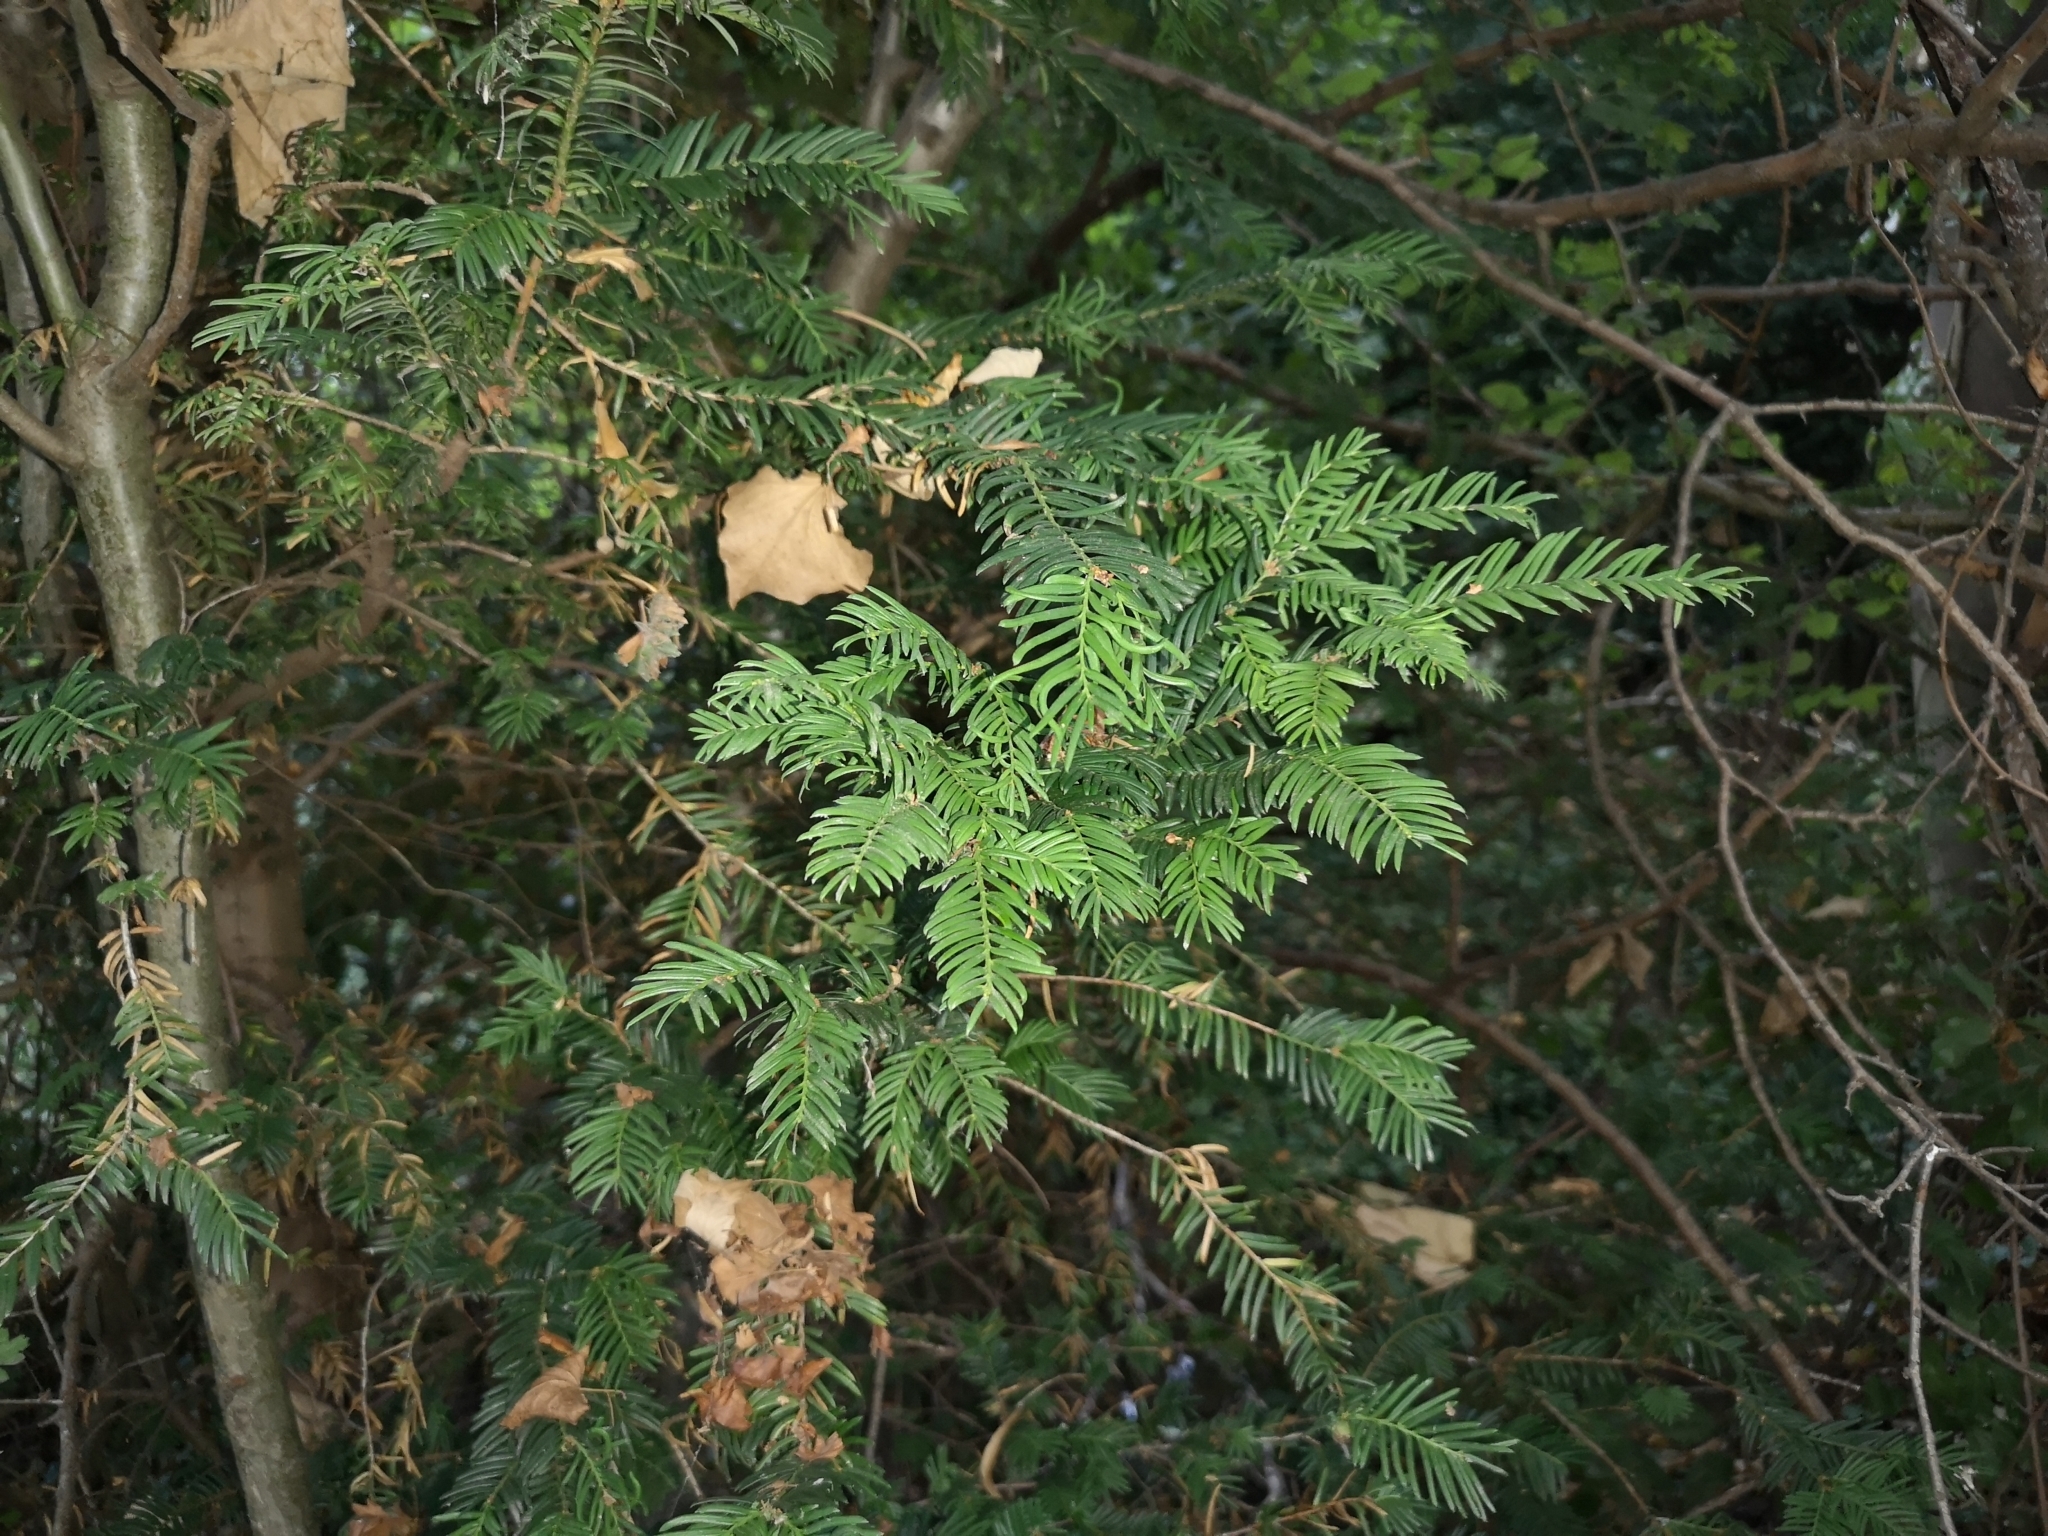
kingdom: Plantae
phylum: Tracheophyta
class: Pinopsida
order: Pinales
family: Taxaceae
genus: Taxus
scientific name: Taxus baccata
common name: Yew
